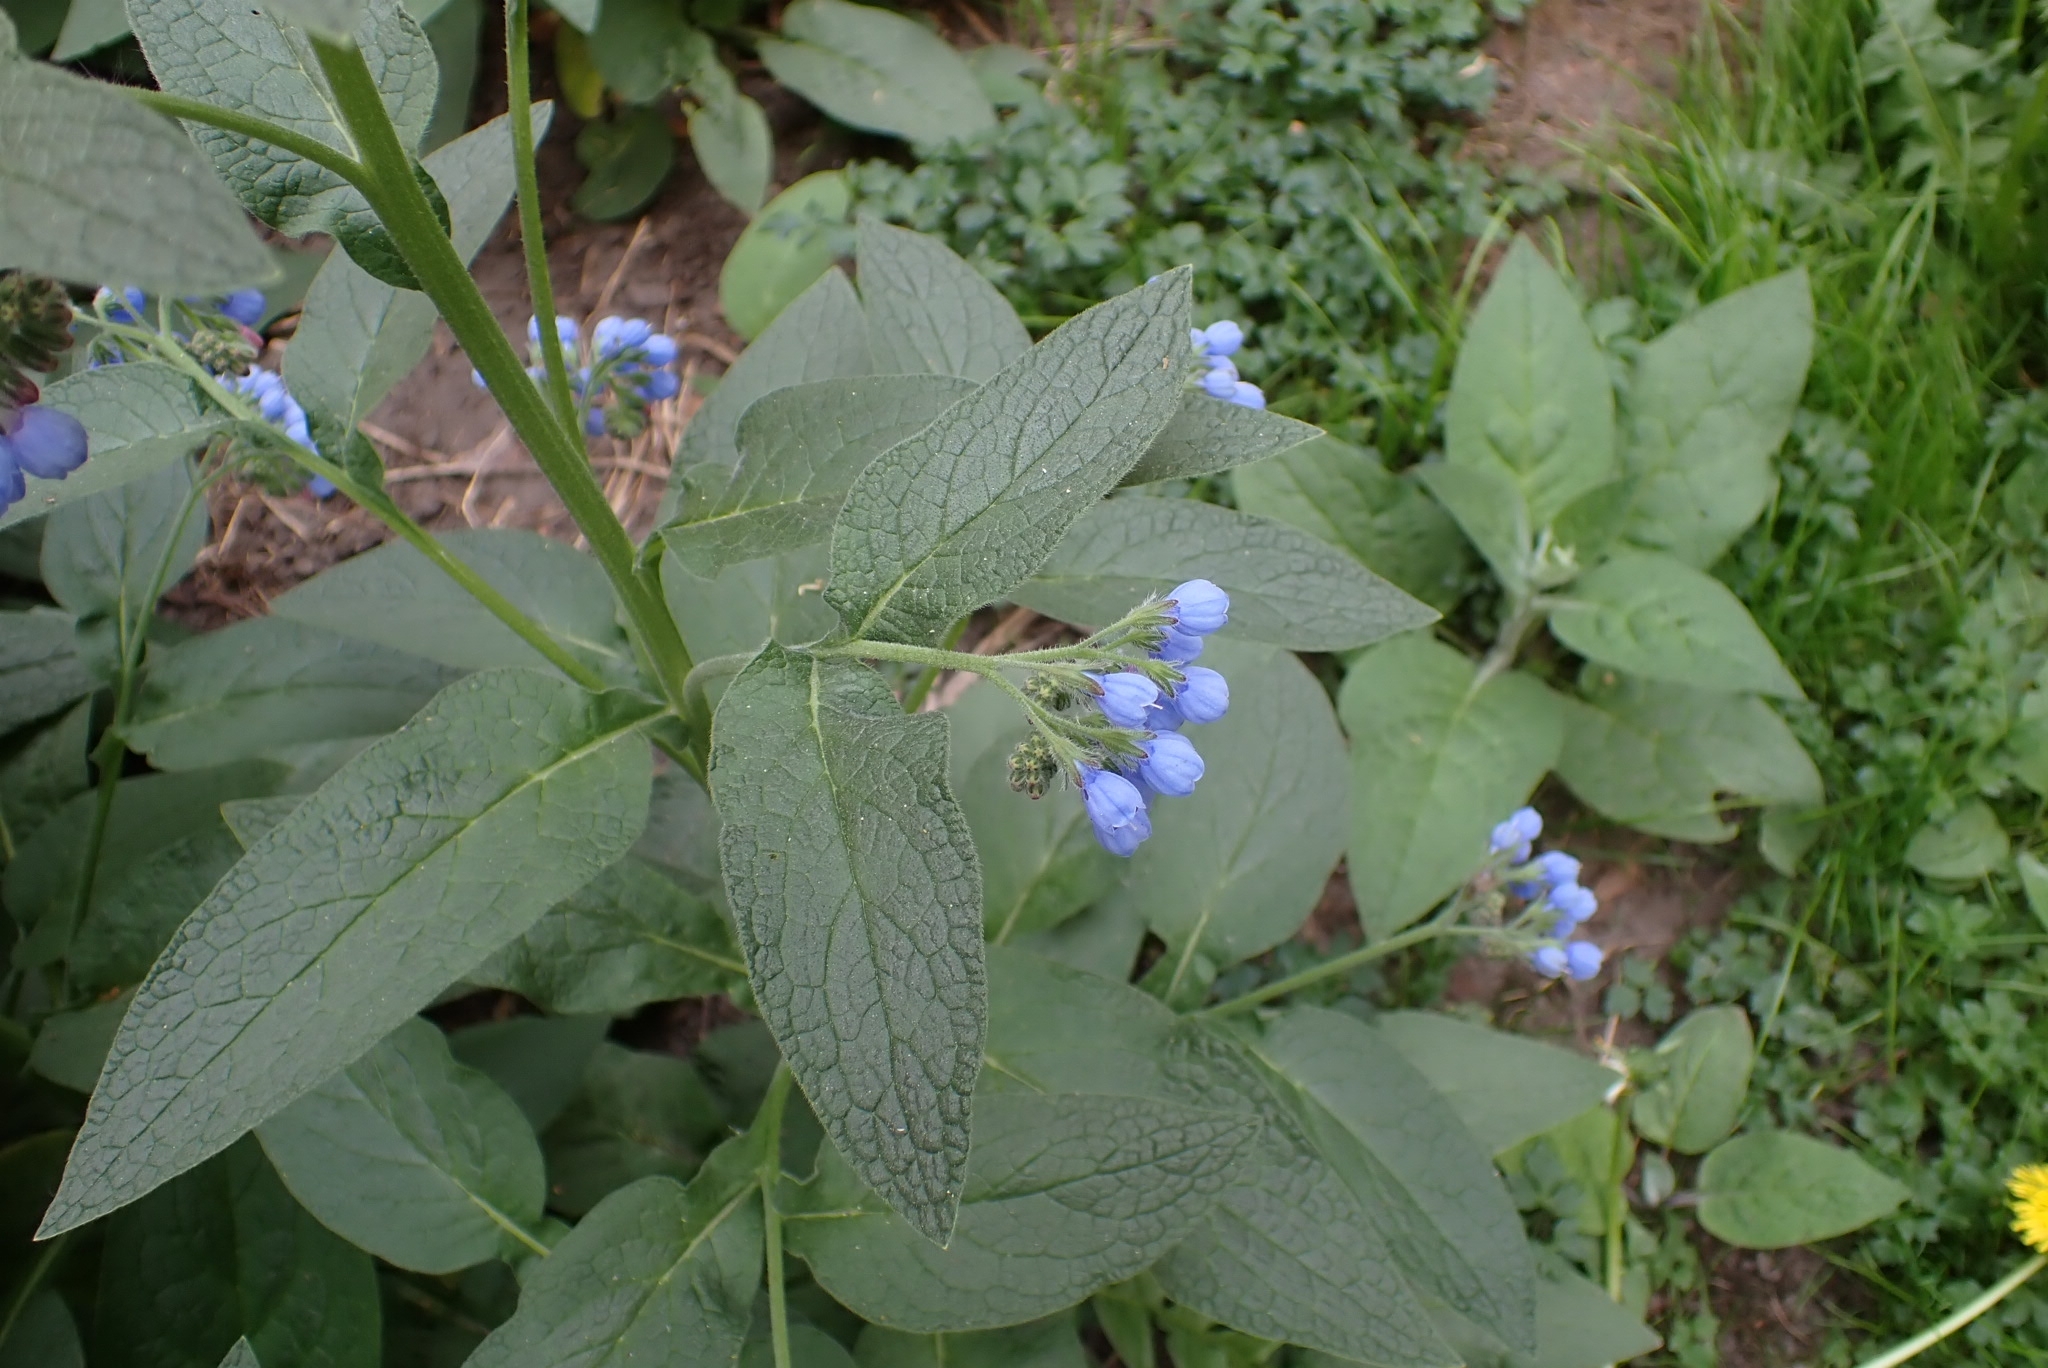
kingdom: Plantae
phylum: Tracheophyta
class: Magnoliopsida
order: Boraginales
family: Boraginaceae
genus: Symphytum
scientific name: Symphytum caucasicum
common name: Caucasian comfrey
